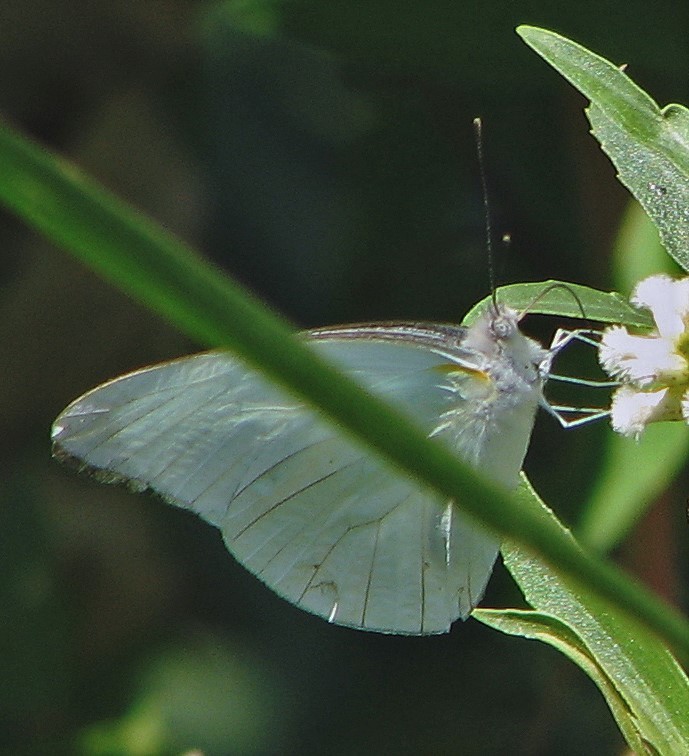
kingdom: Animalia
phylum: Arthropoda
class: Insecta
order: Lepidoptera
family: Pieridae
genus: Glutophrissa
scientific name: Glutophrissa drusilla
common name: Florida white
